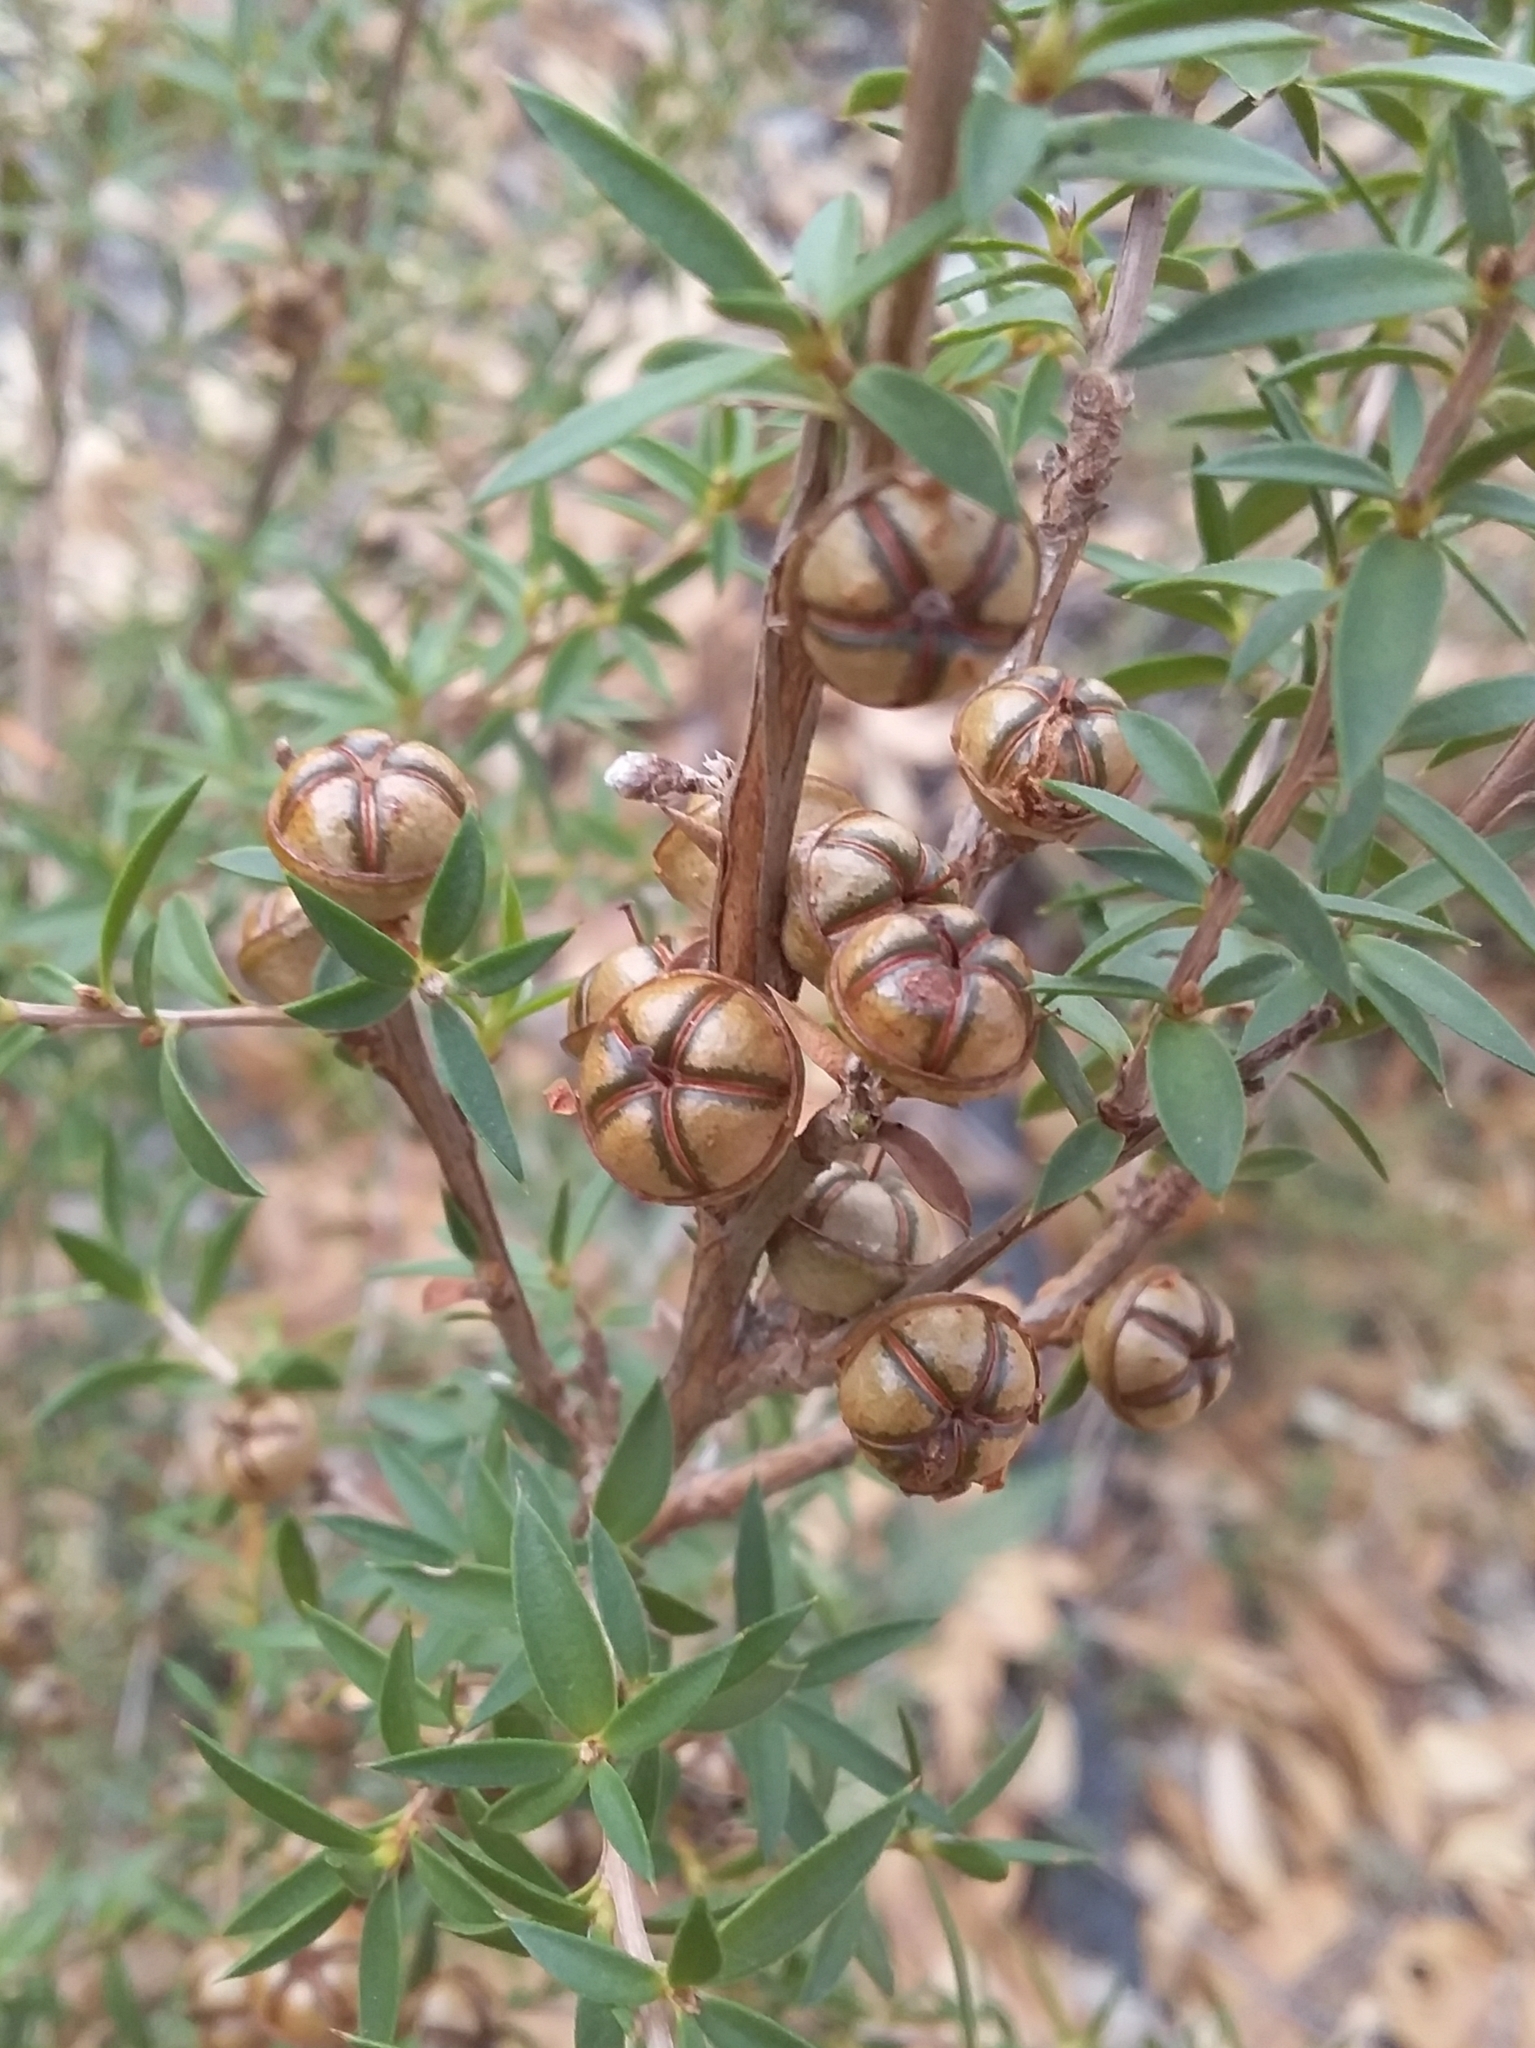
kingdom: Plantae
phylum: Tracheophyta
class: Magnoliopsida
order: Myrtales
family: Myrtaceae
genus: Leptospermum
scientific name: Leptospermum continentale
